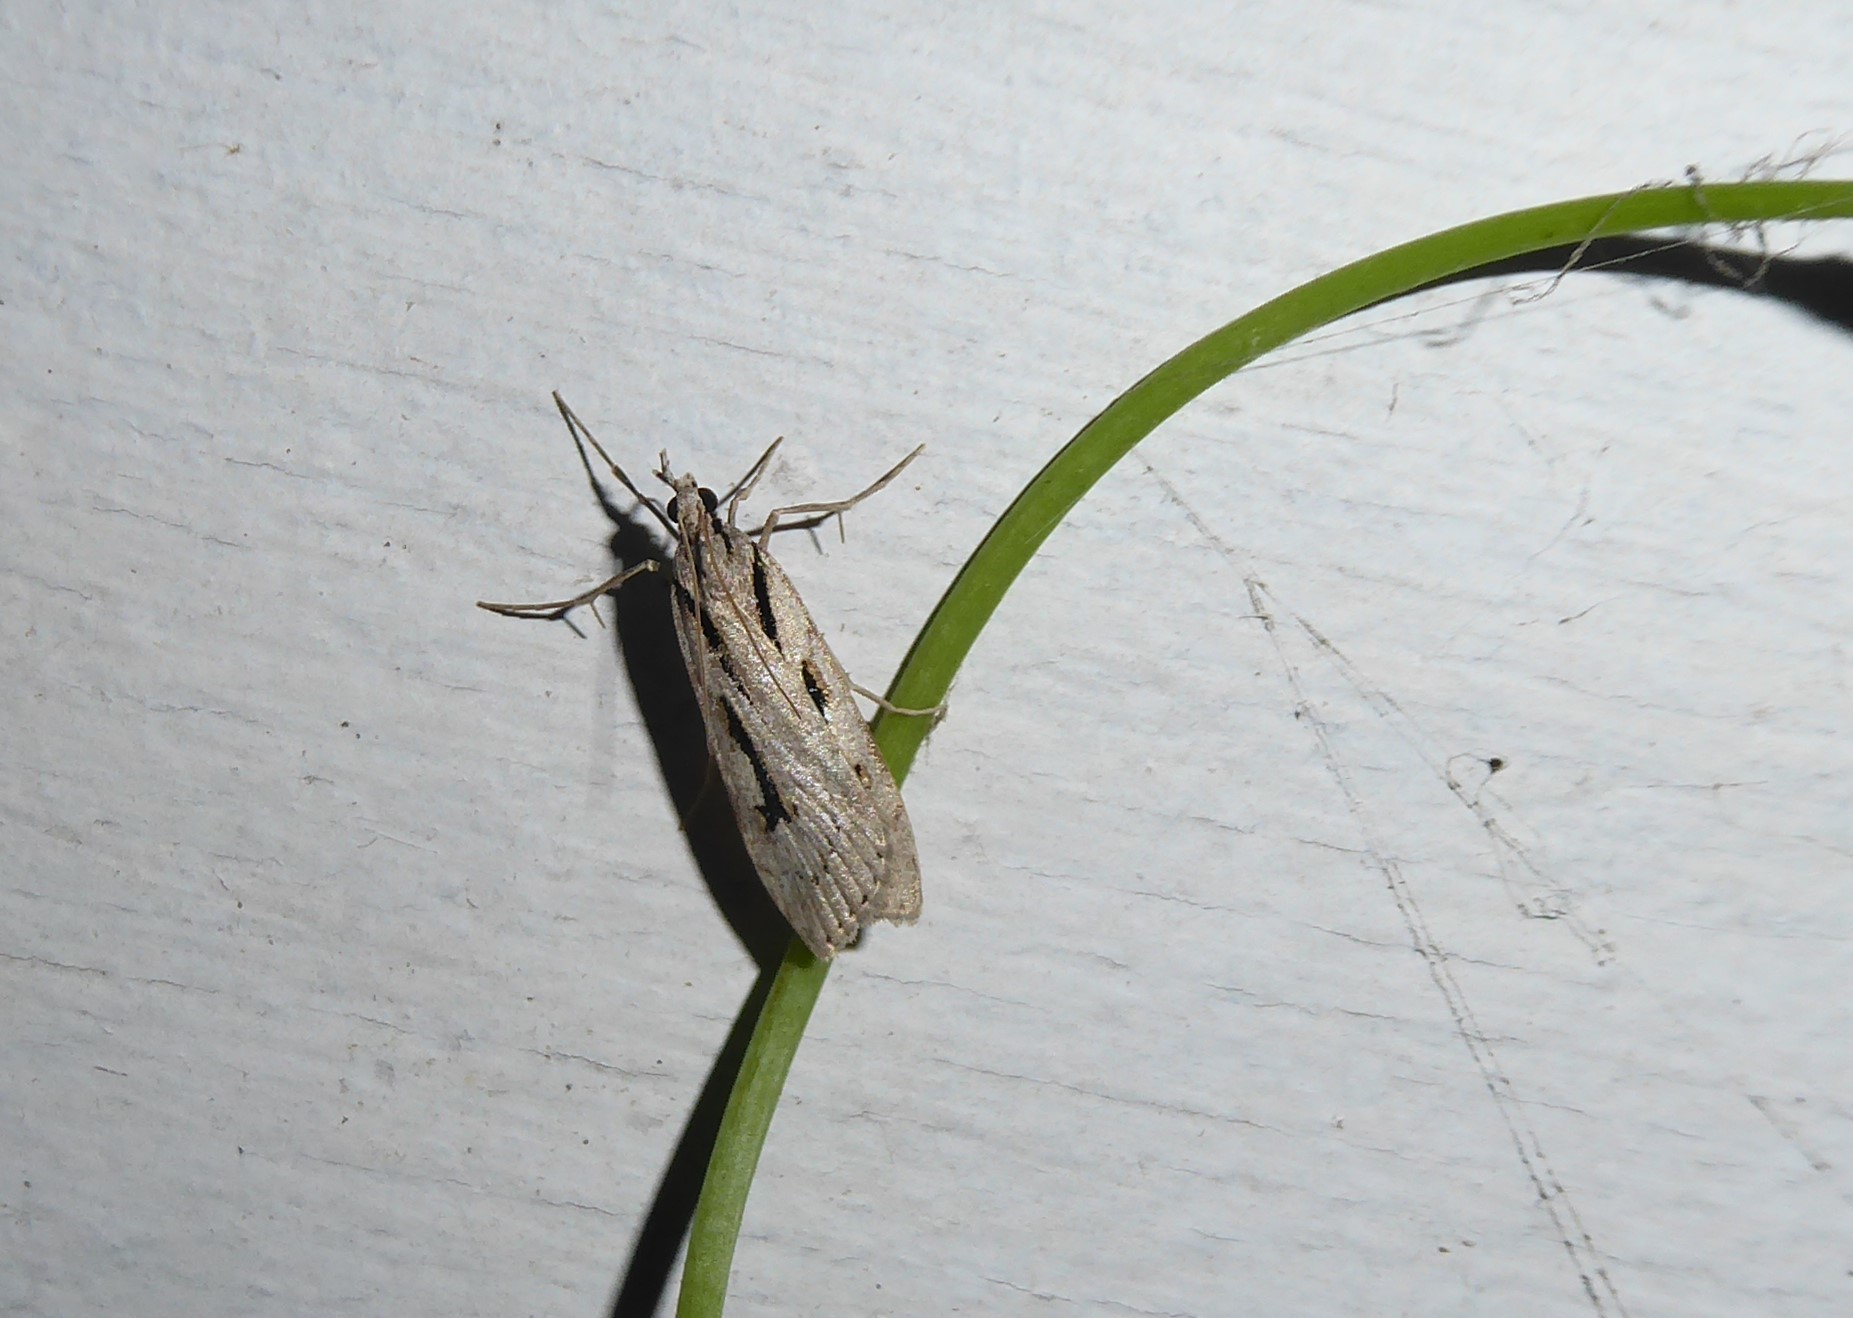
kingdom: Animalia
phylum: Arthropoda
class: Insecta
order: Lepidoptera
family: Crambidae
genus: Scoparia
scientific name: Scoparia rotuellus
